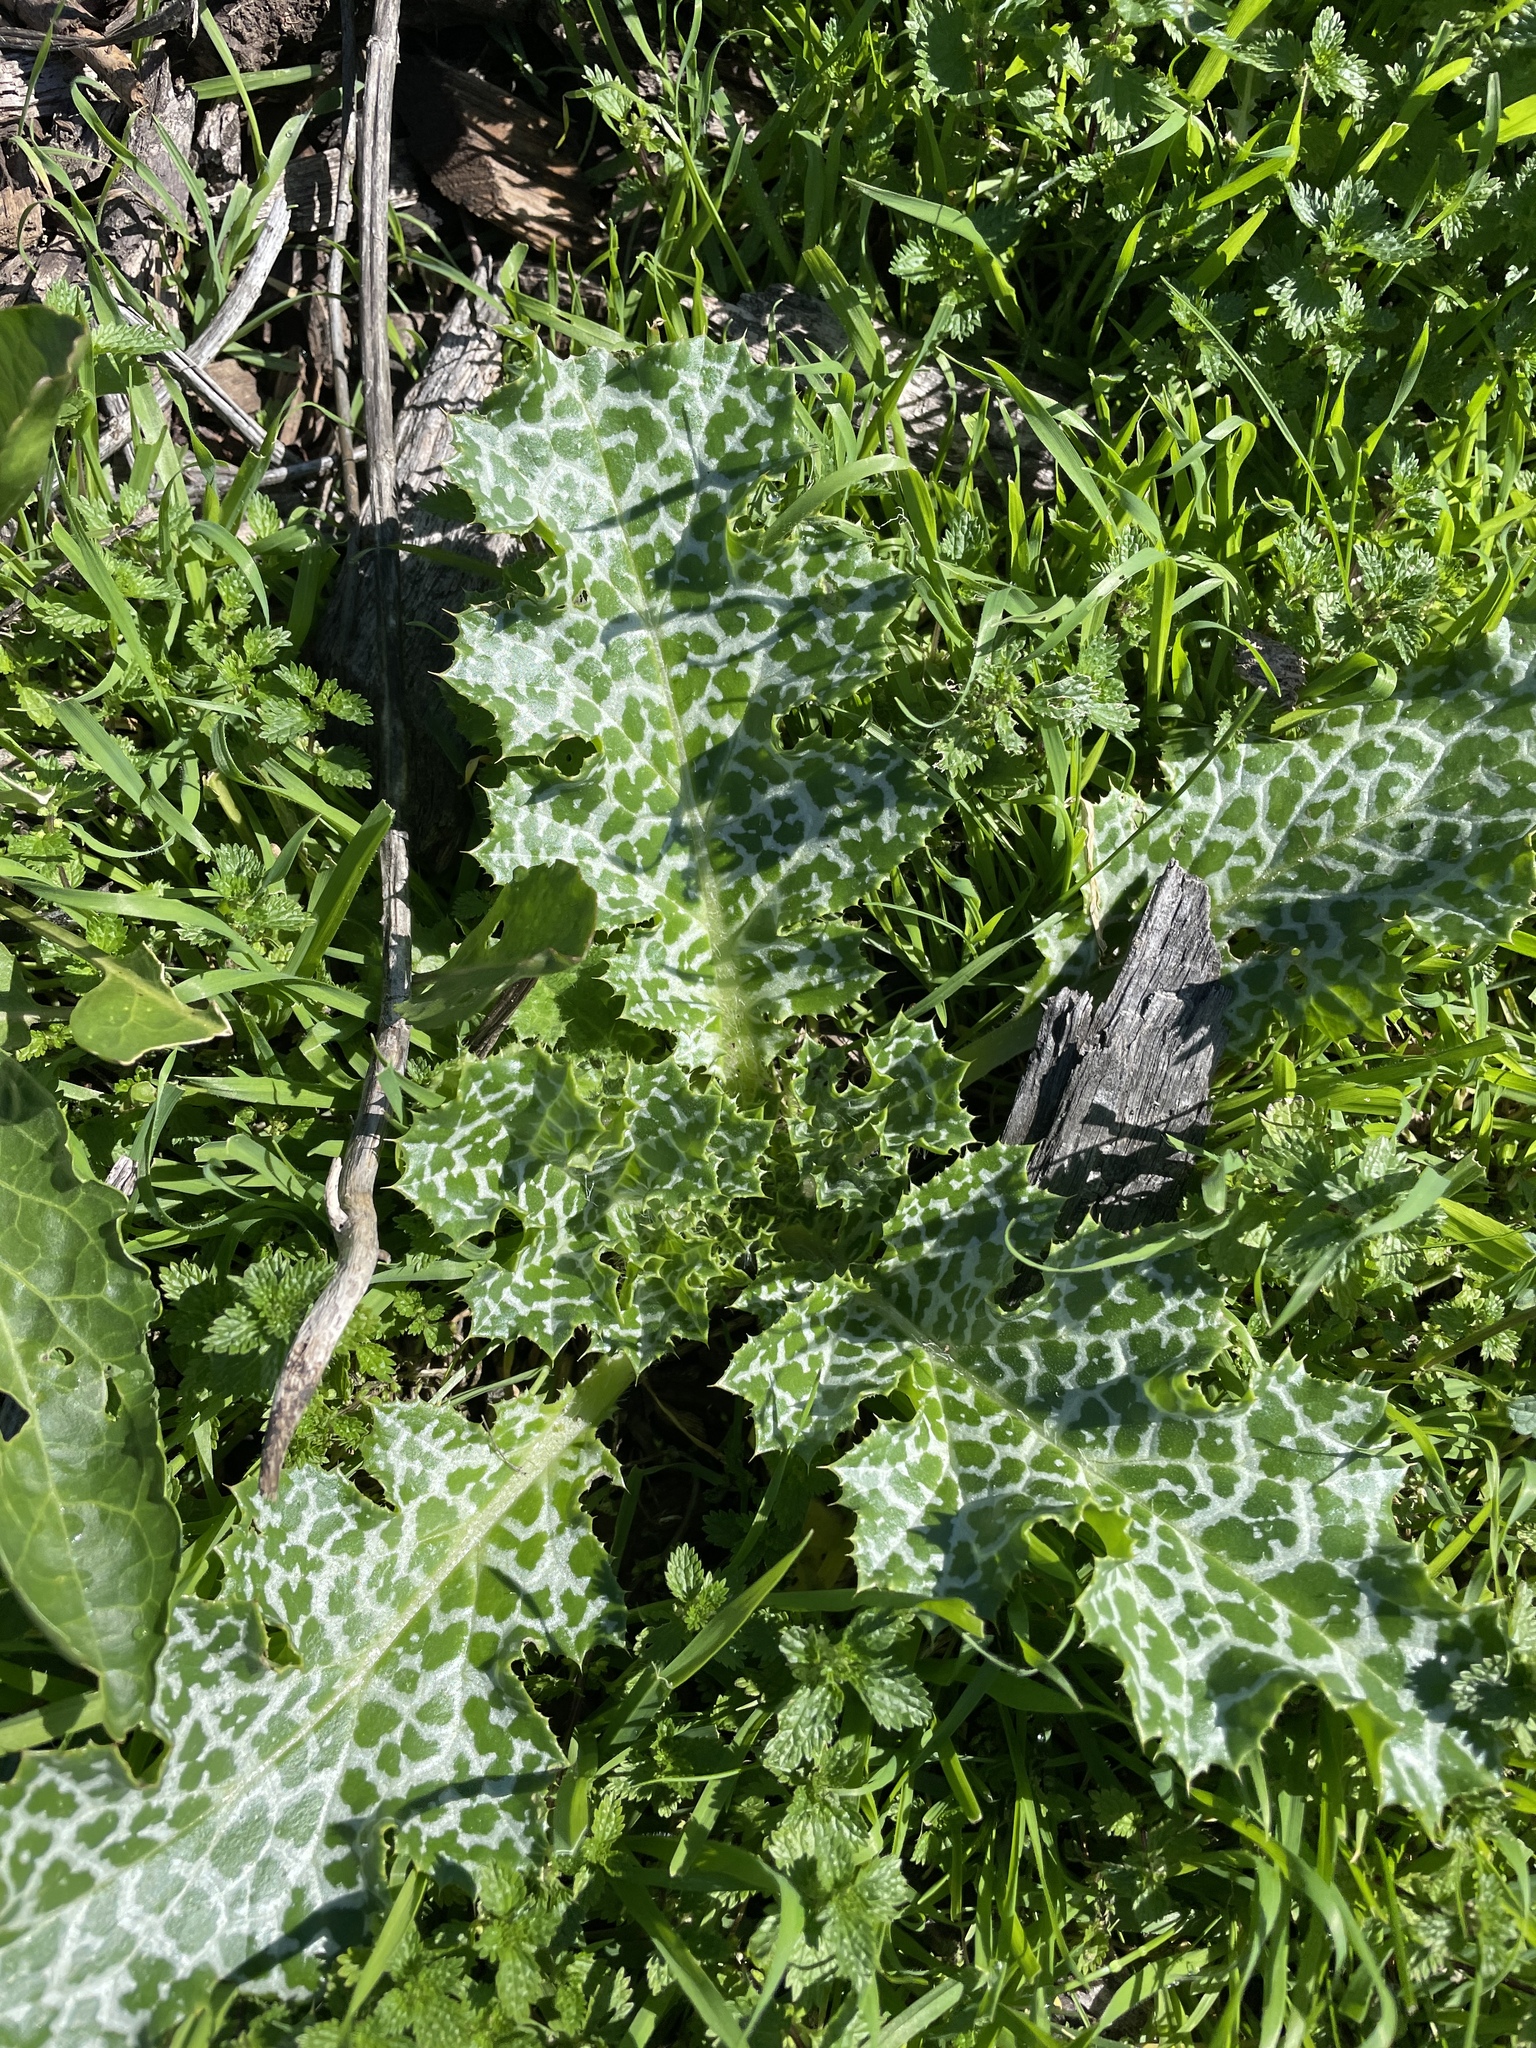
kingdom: Plantae
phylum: Tracheophyta
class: Magnoliopsida
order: Asterales
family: Asteraceae
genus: Silybum
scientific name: Silybum marianum
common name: Milk thistle
